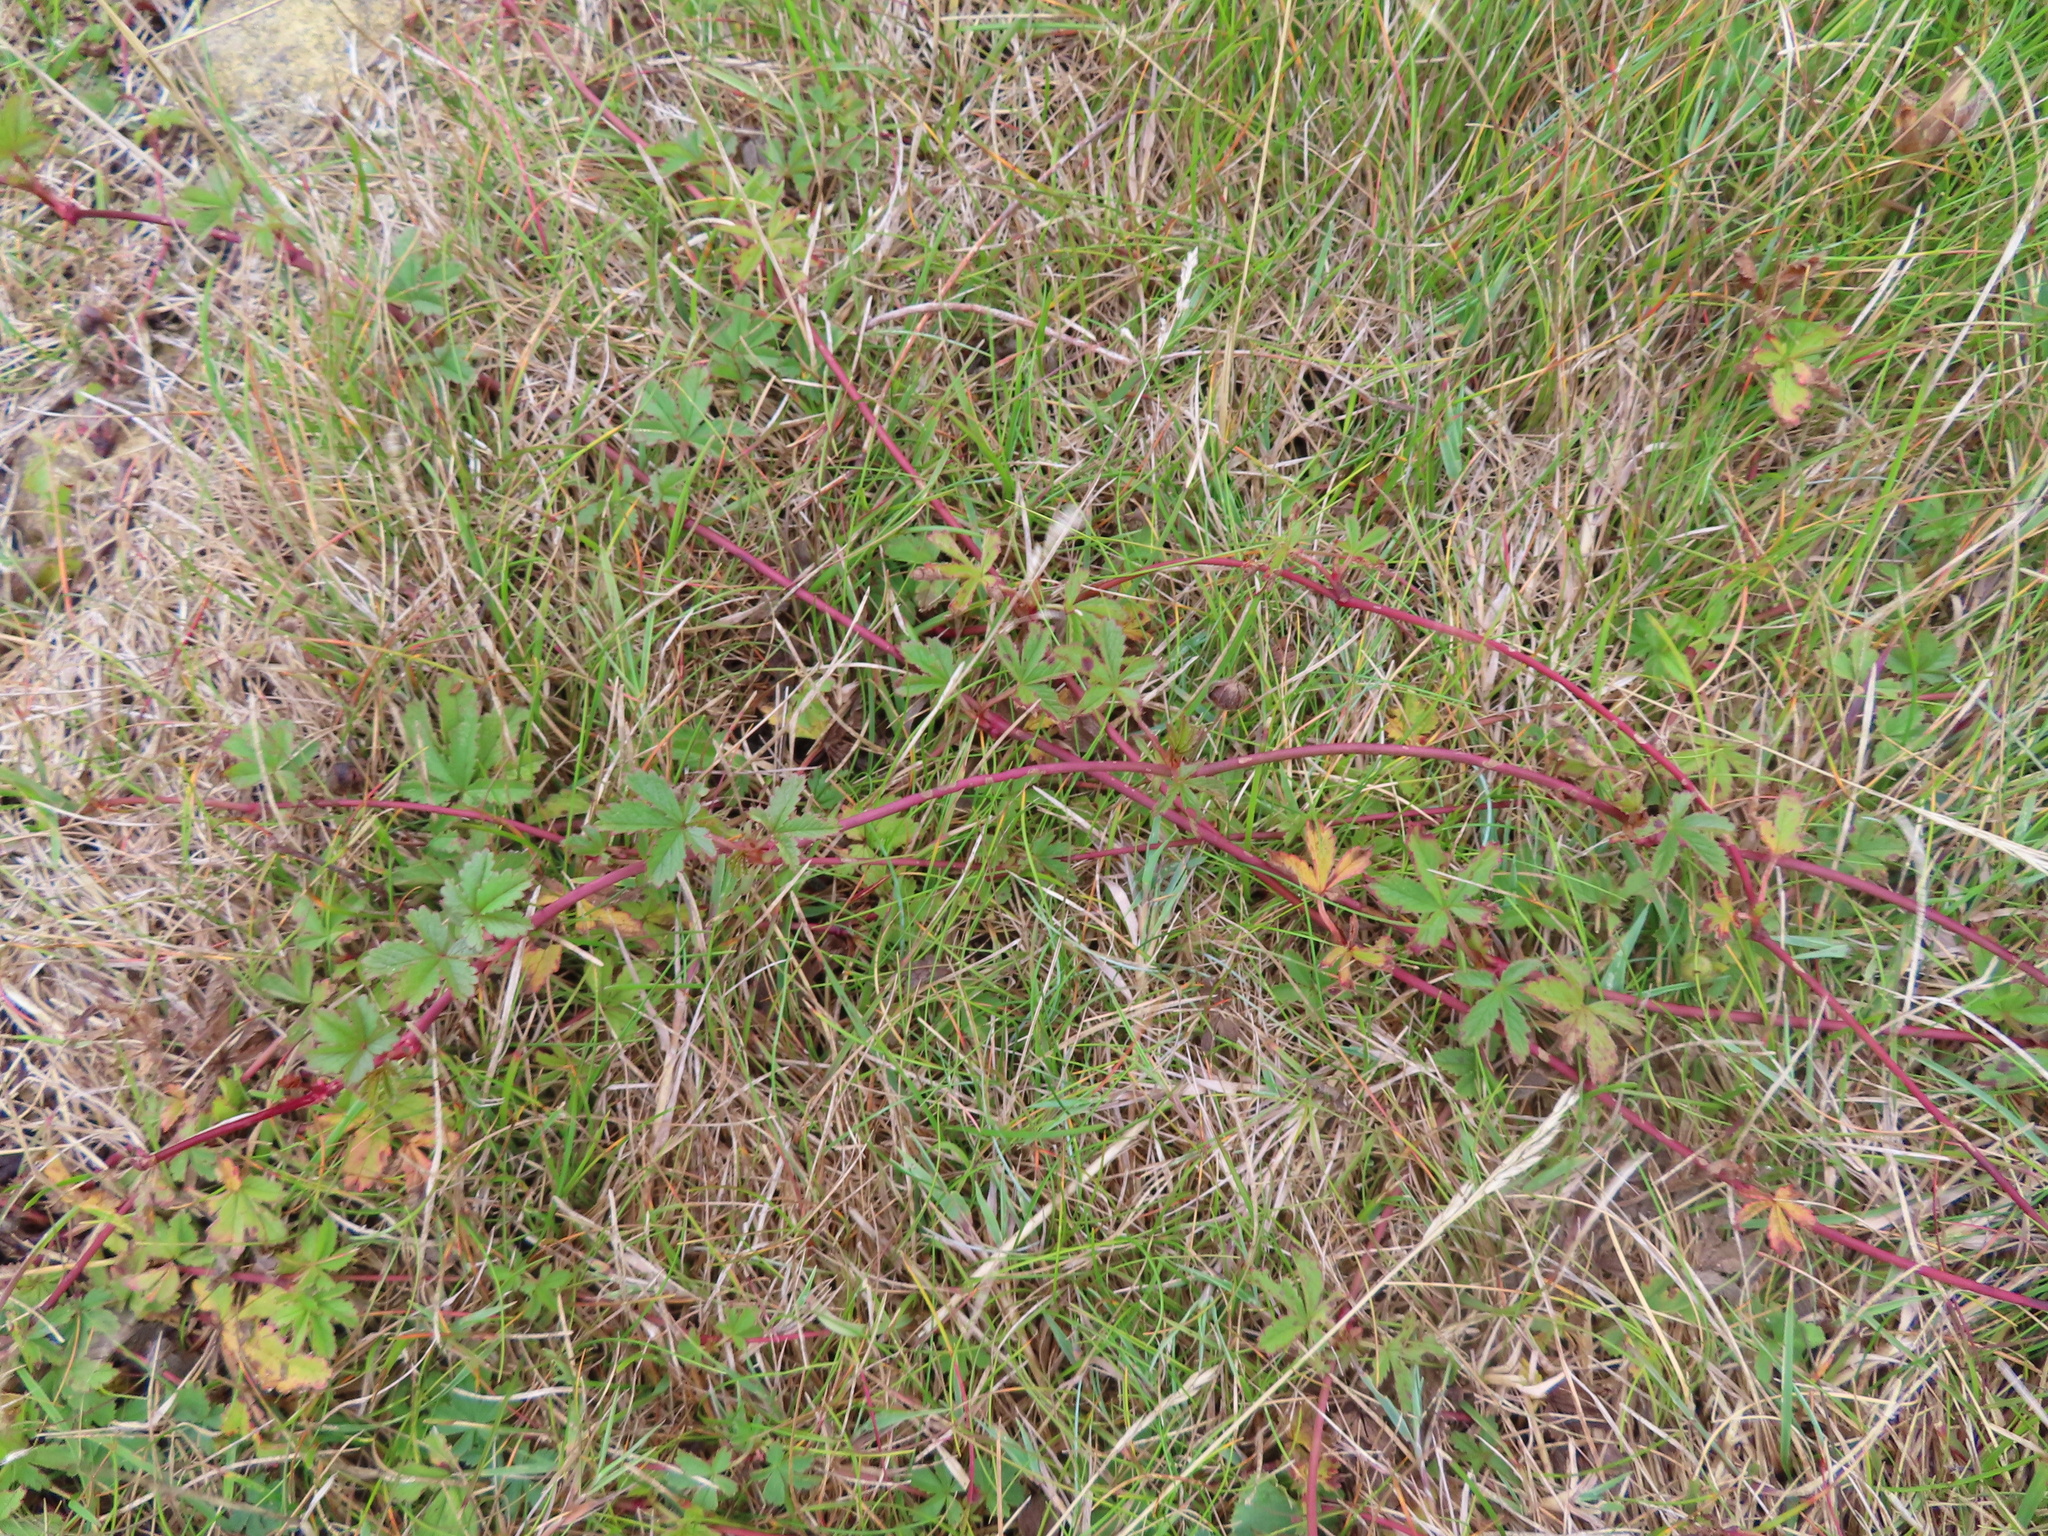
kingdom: Plantae
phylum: Tracheophyta
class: Magnoliopsida
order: Rosales
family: Rosaceae
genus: Potentilla
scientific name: Potentilla reptans
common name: Creeping cinquefoil
